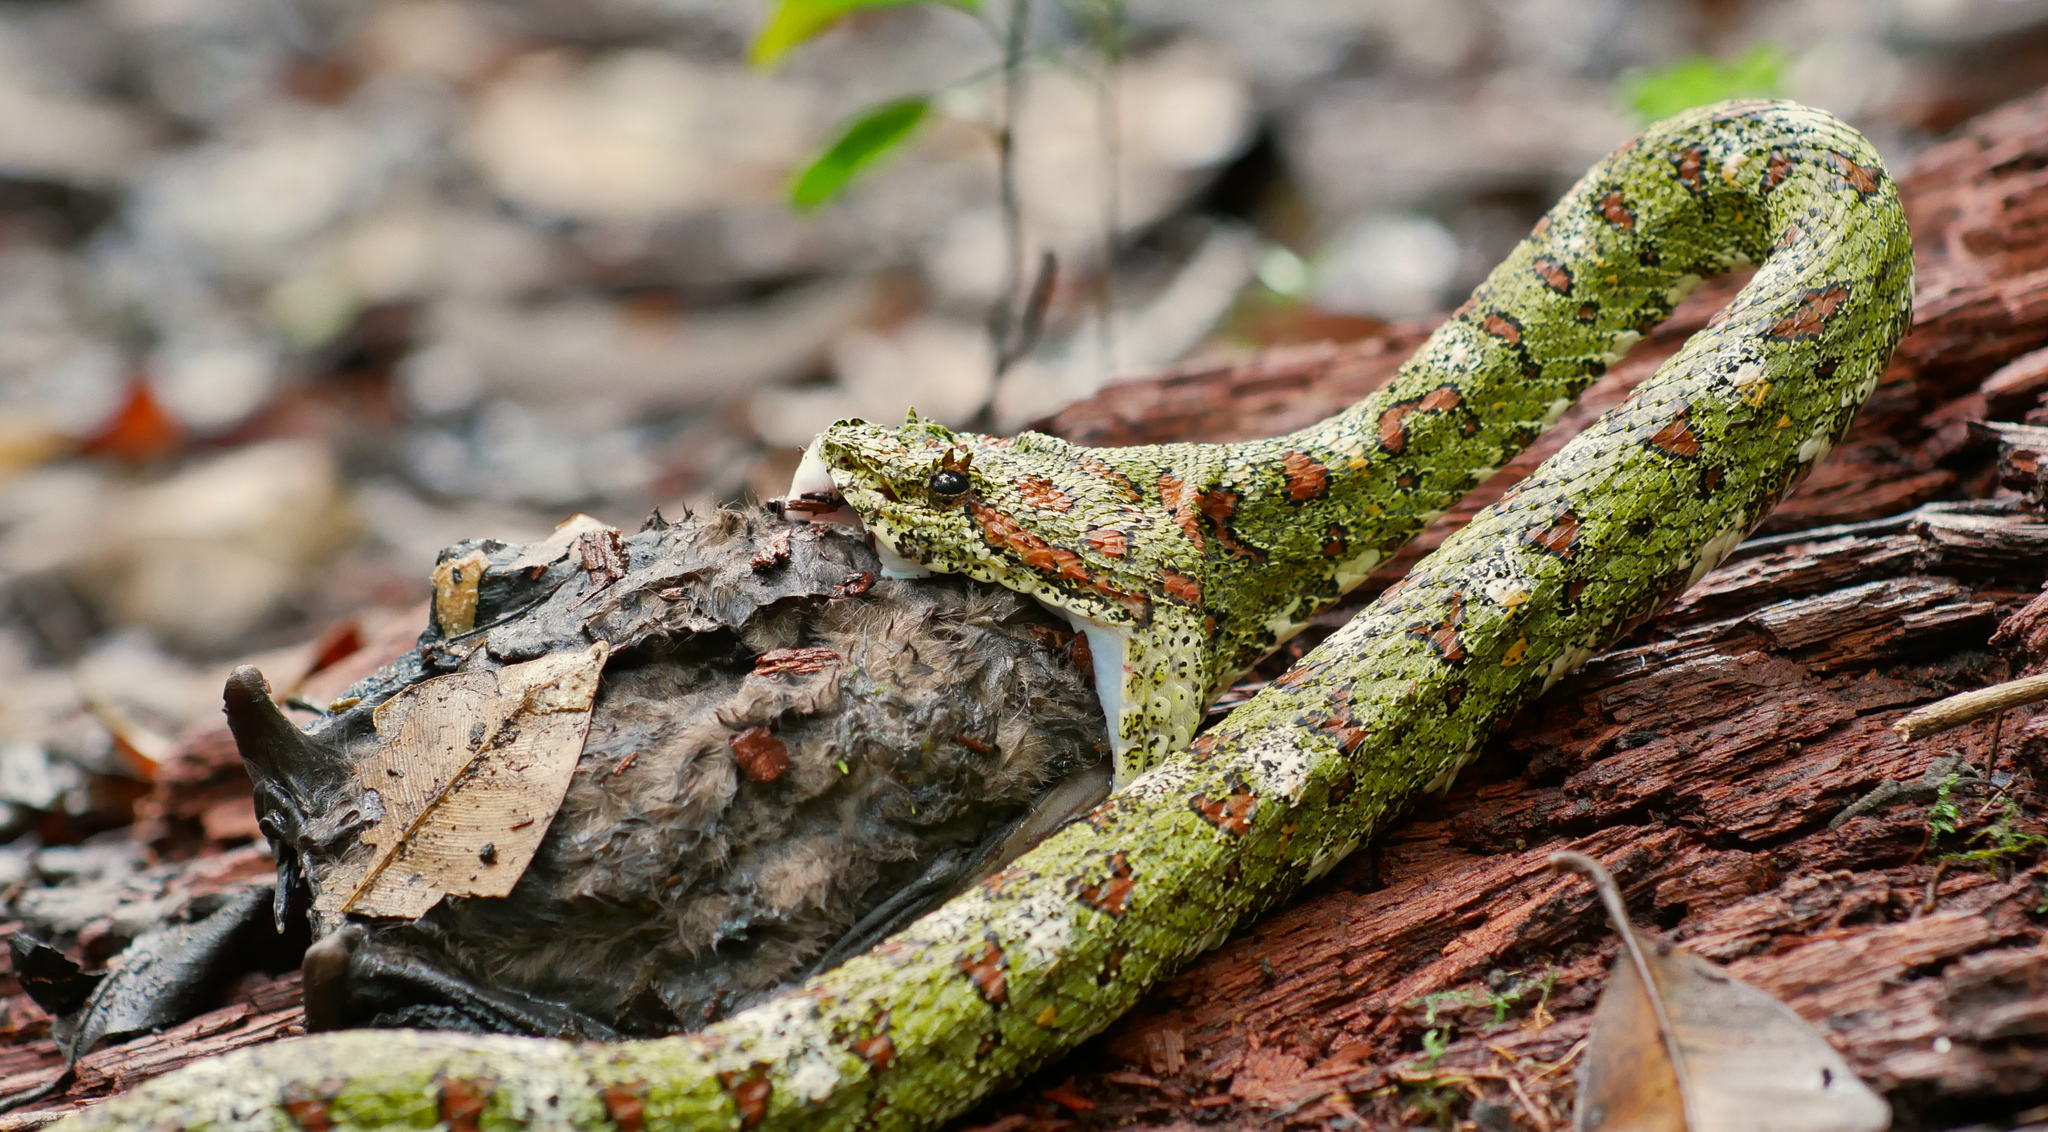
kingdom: Animalia
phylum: Chordata
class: Squamata
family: Viperidae
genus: Bothriechis
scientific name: Bothriechis schlegelii
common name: Eyelash viper
